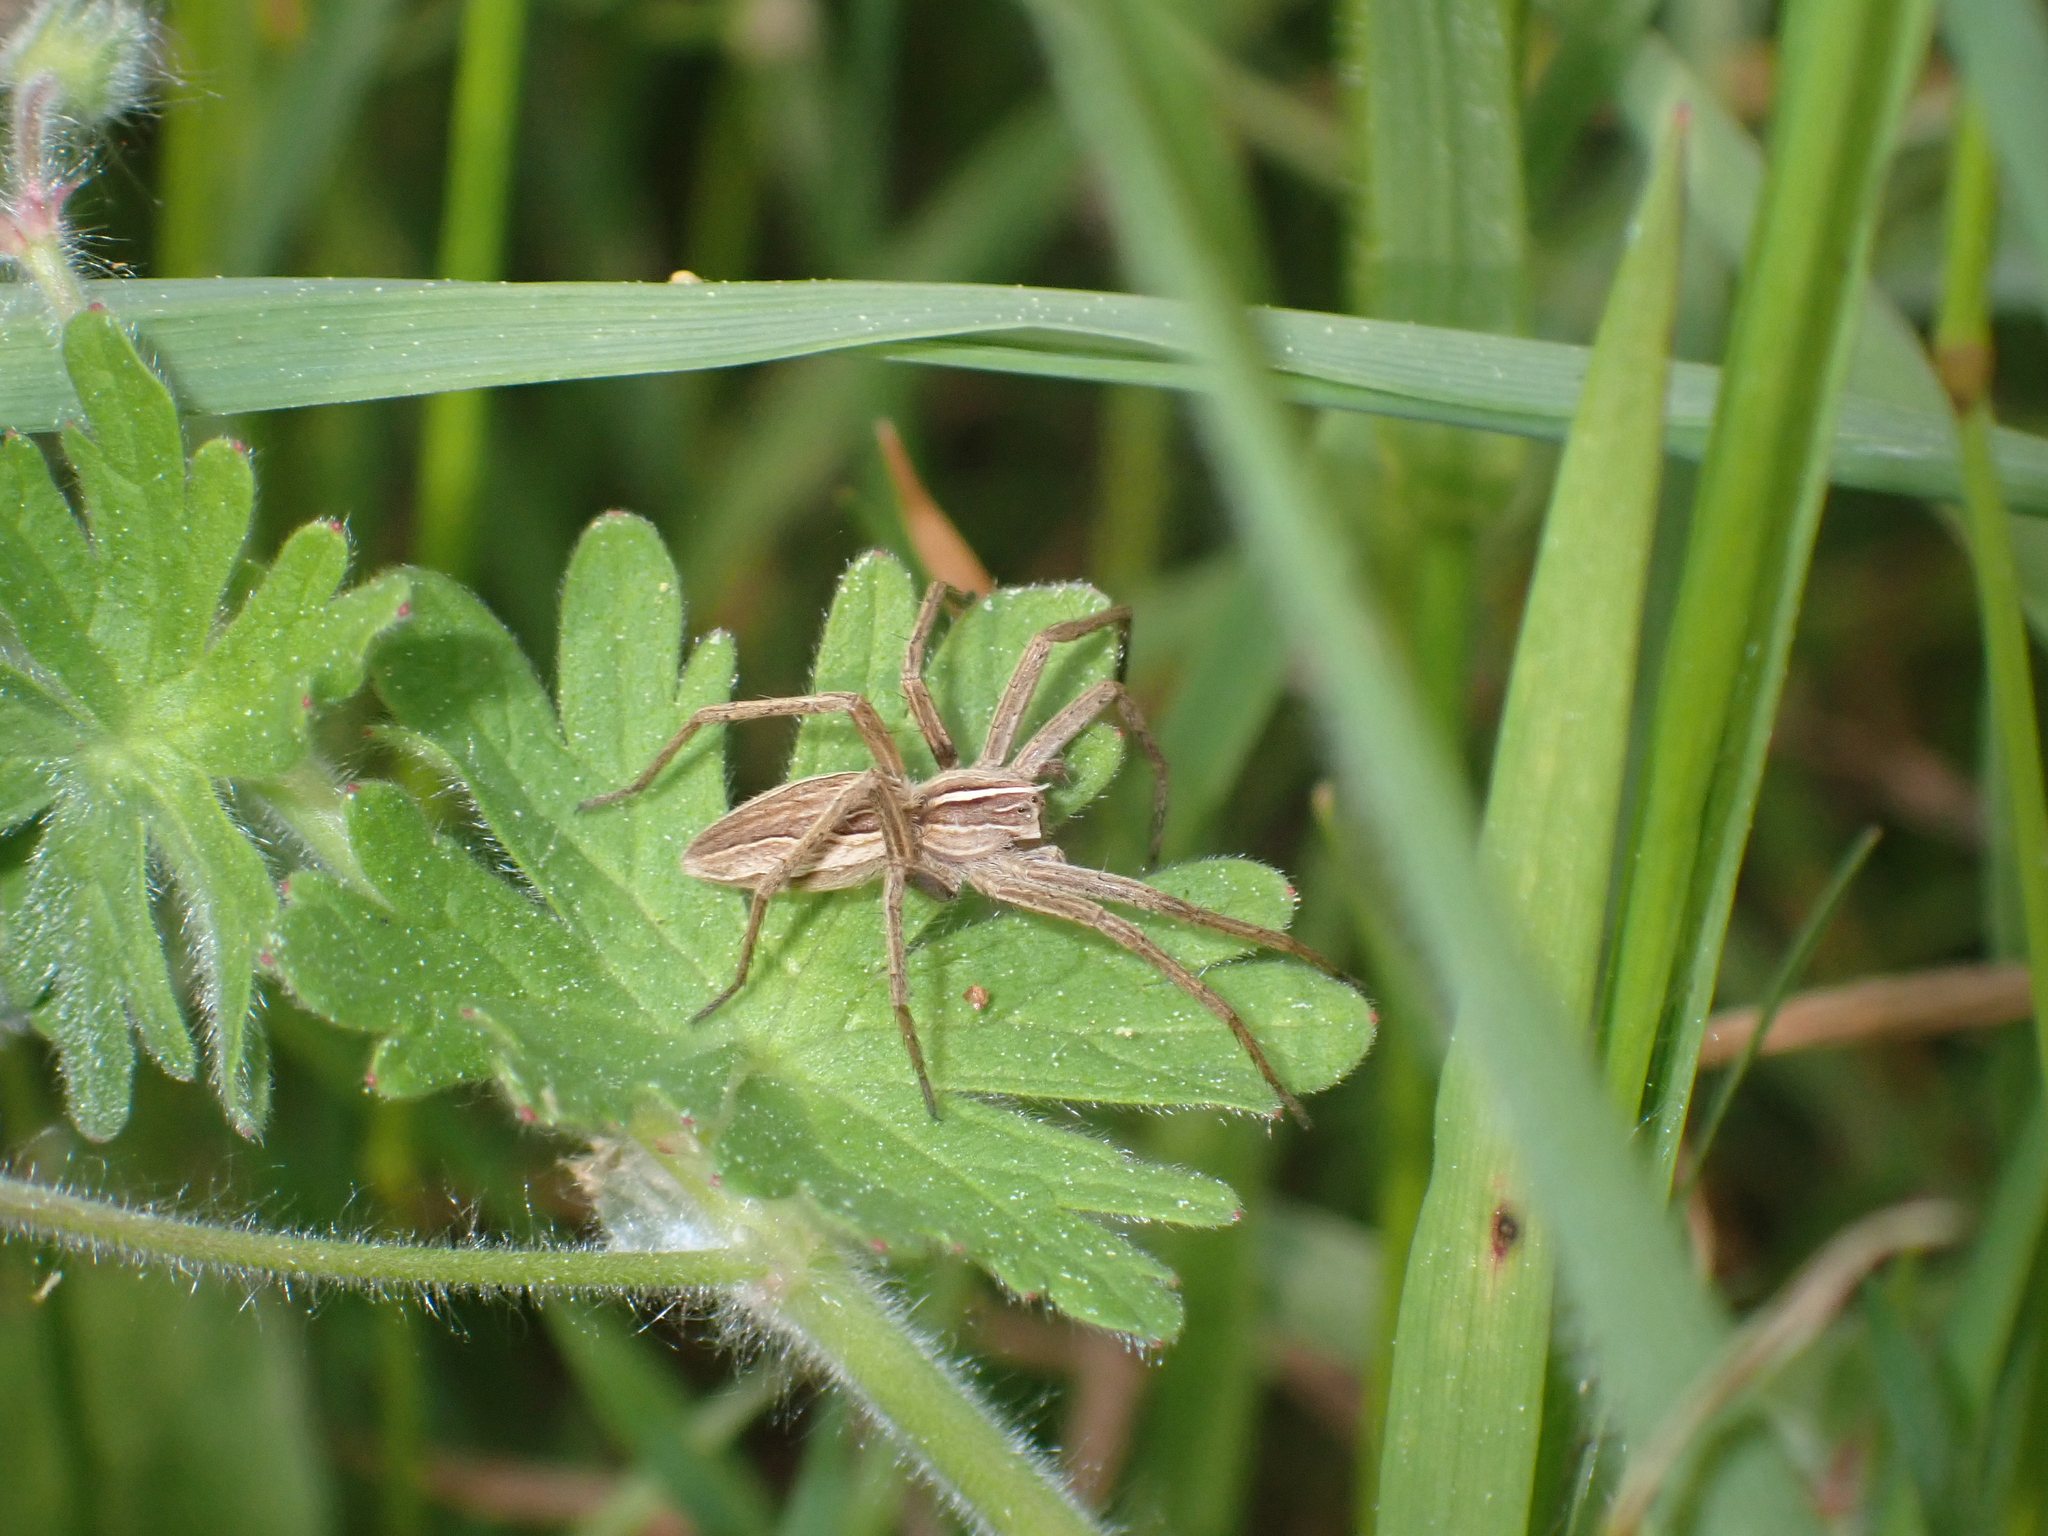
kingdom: Animalia
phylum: Arthropoda
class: Arachnida
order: Araneae
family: Pisauridae
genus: Pisaura
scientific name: Pisaura mirabilis
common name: Tent spider
